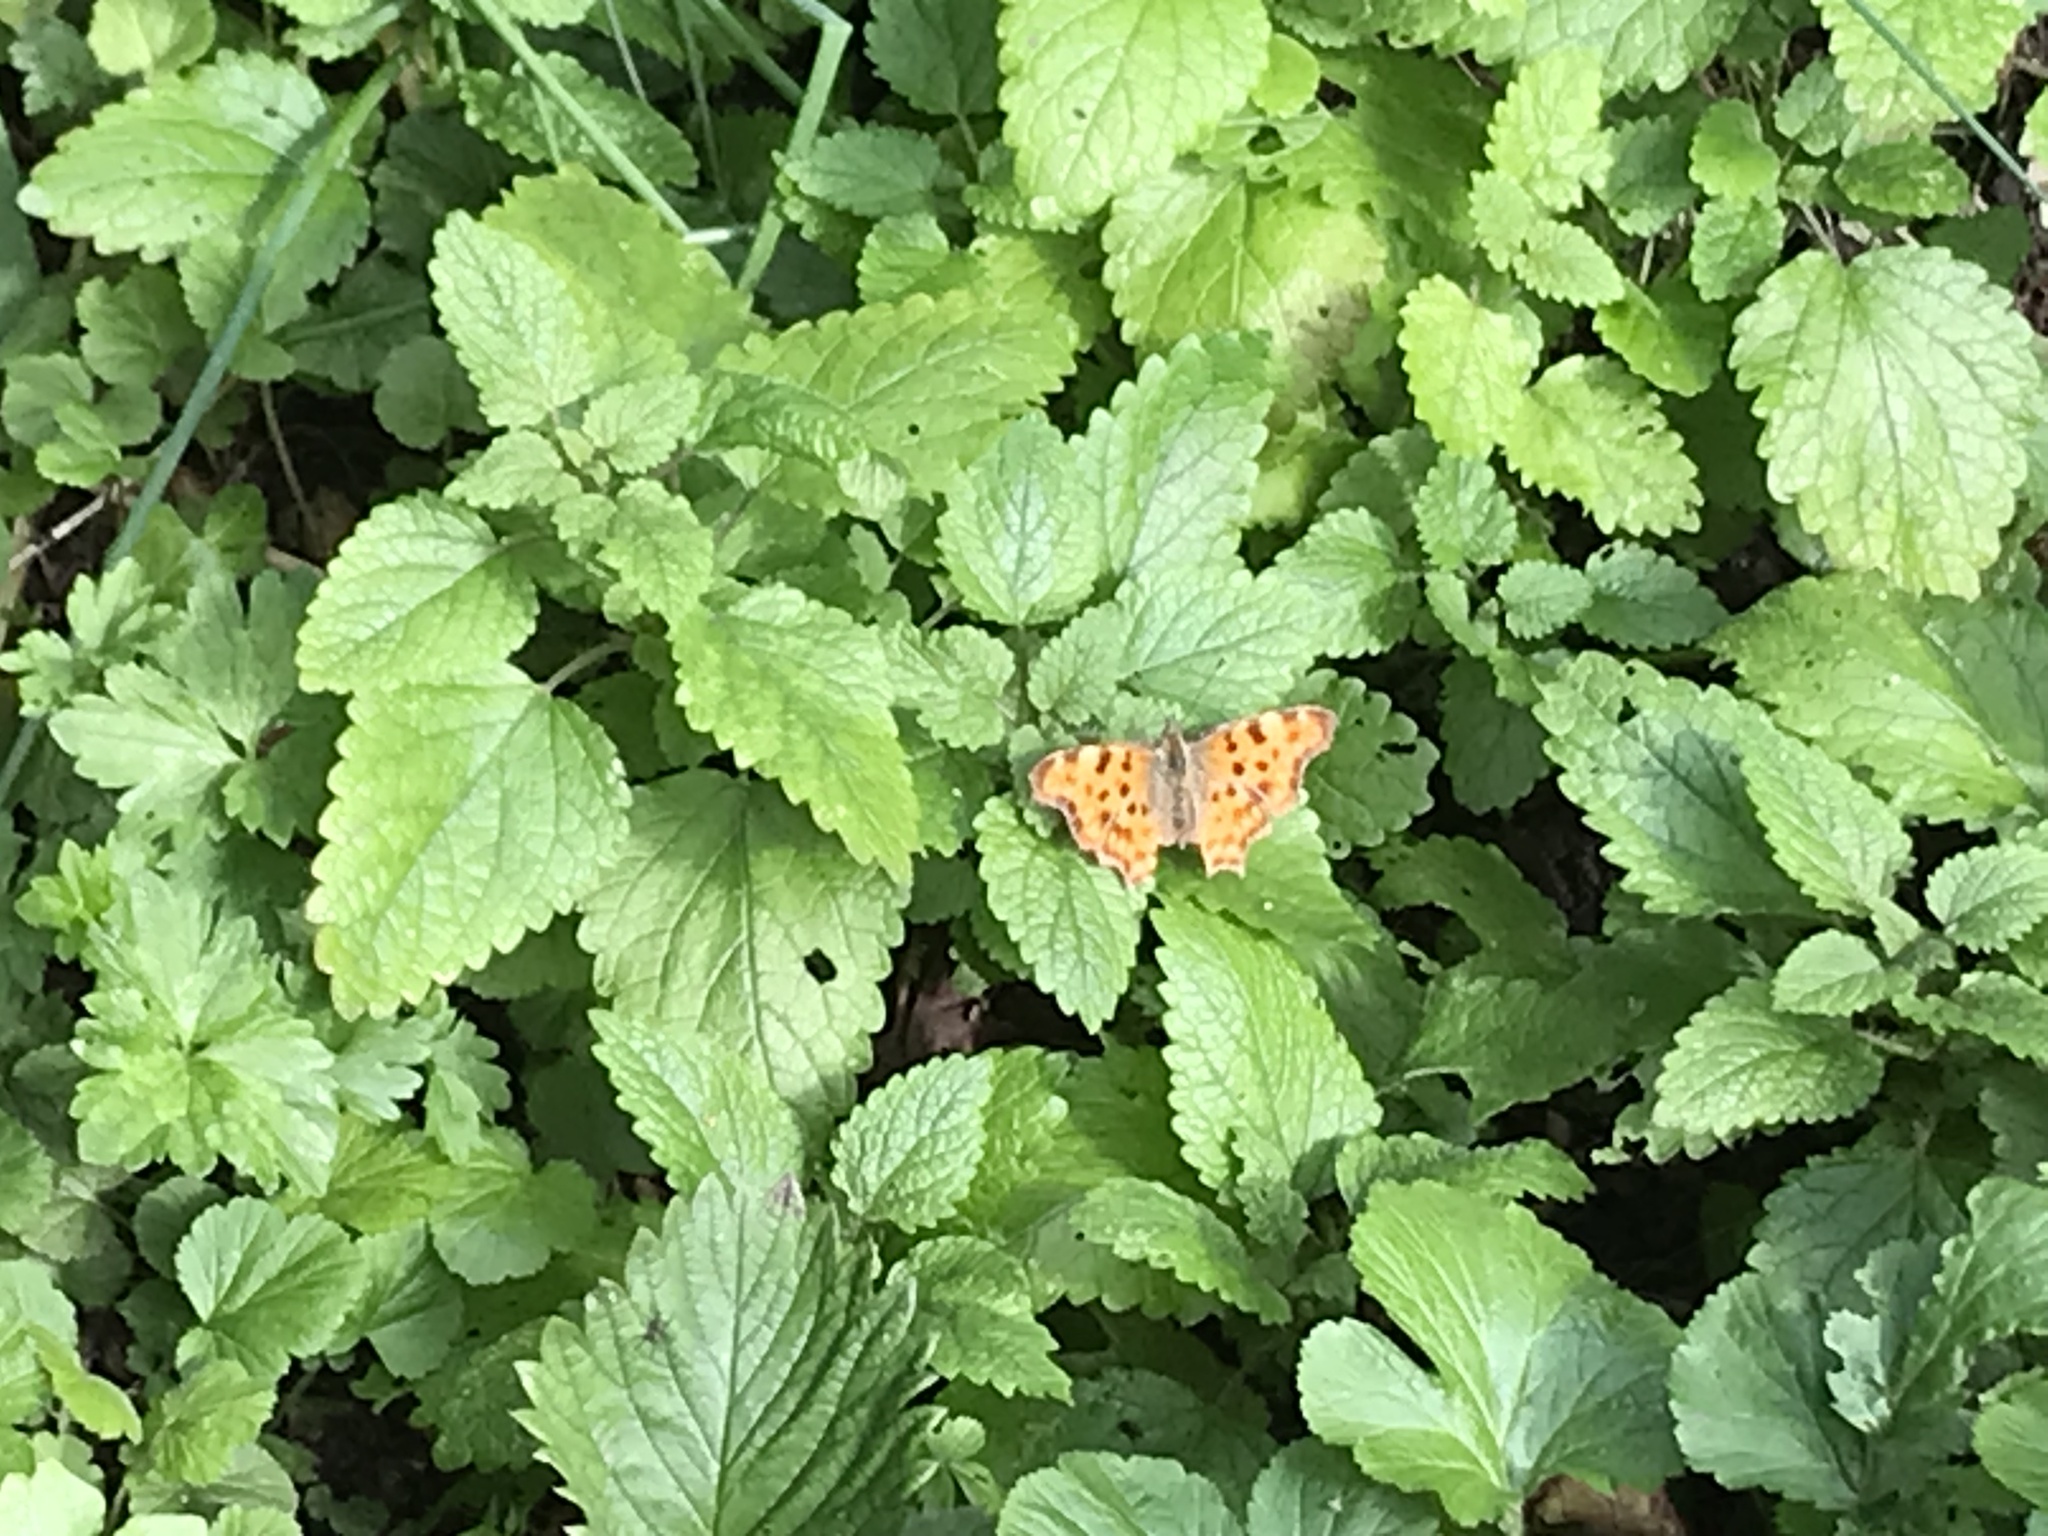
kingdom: Animalia
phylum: Arthropoda
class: Insecta
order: Lepidoptera
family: Nymphalidae
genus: Polygonia
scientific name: Polygonia c-album
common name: Comma
